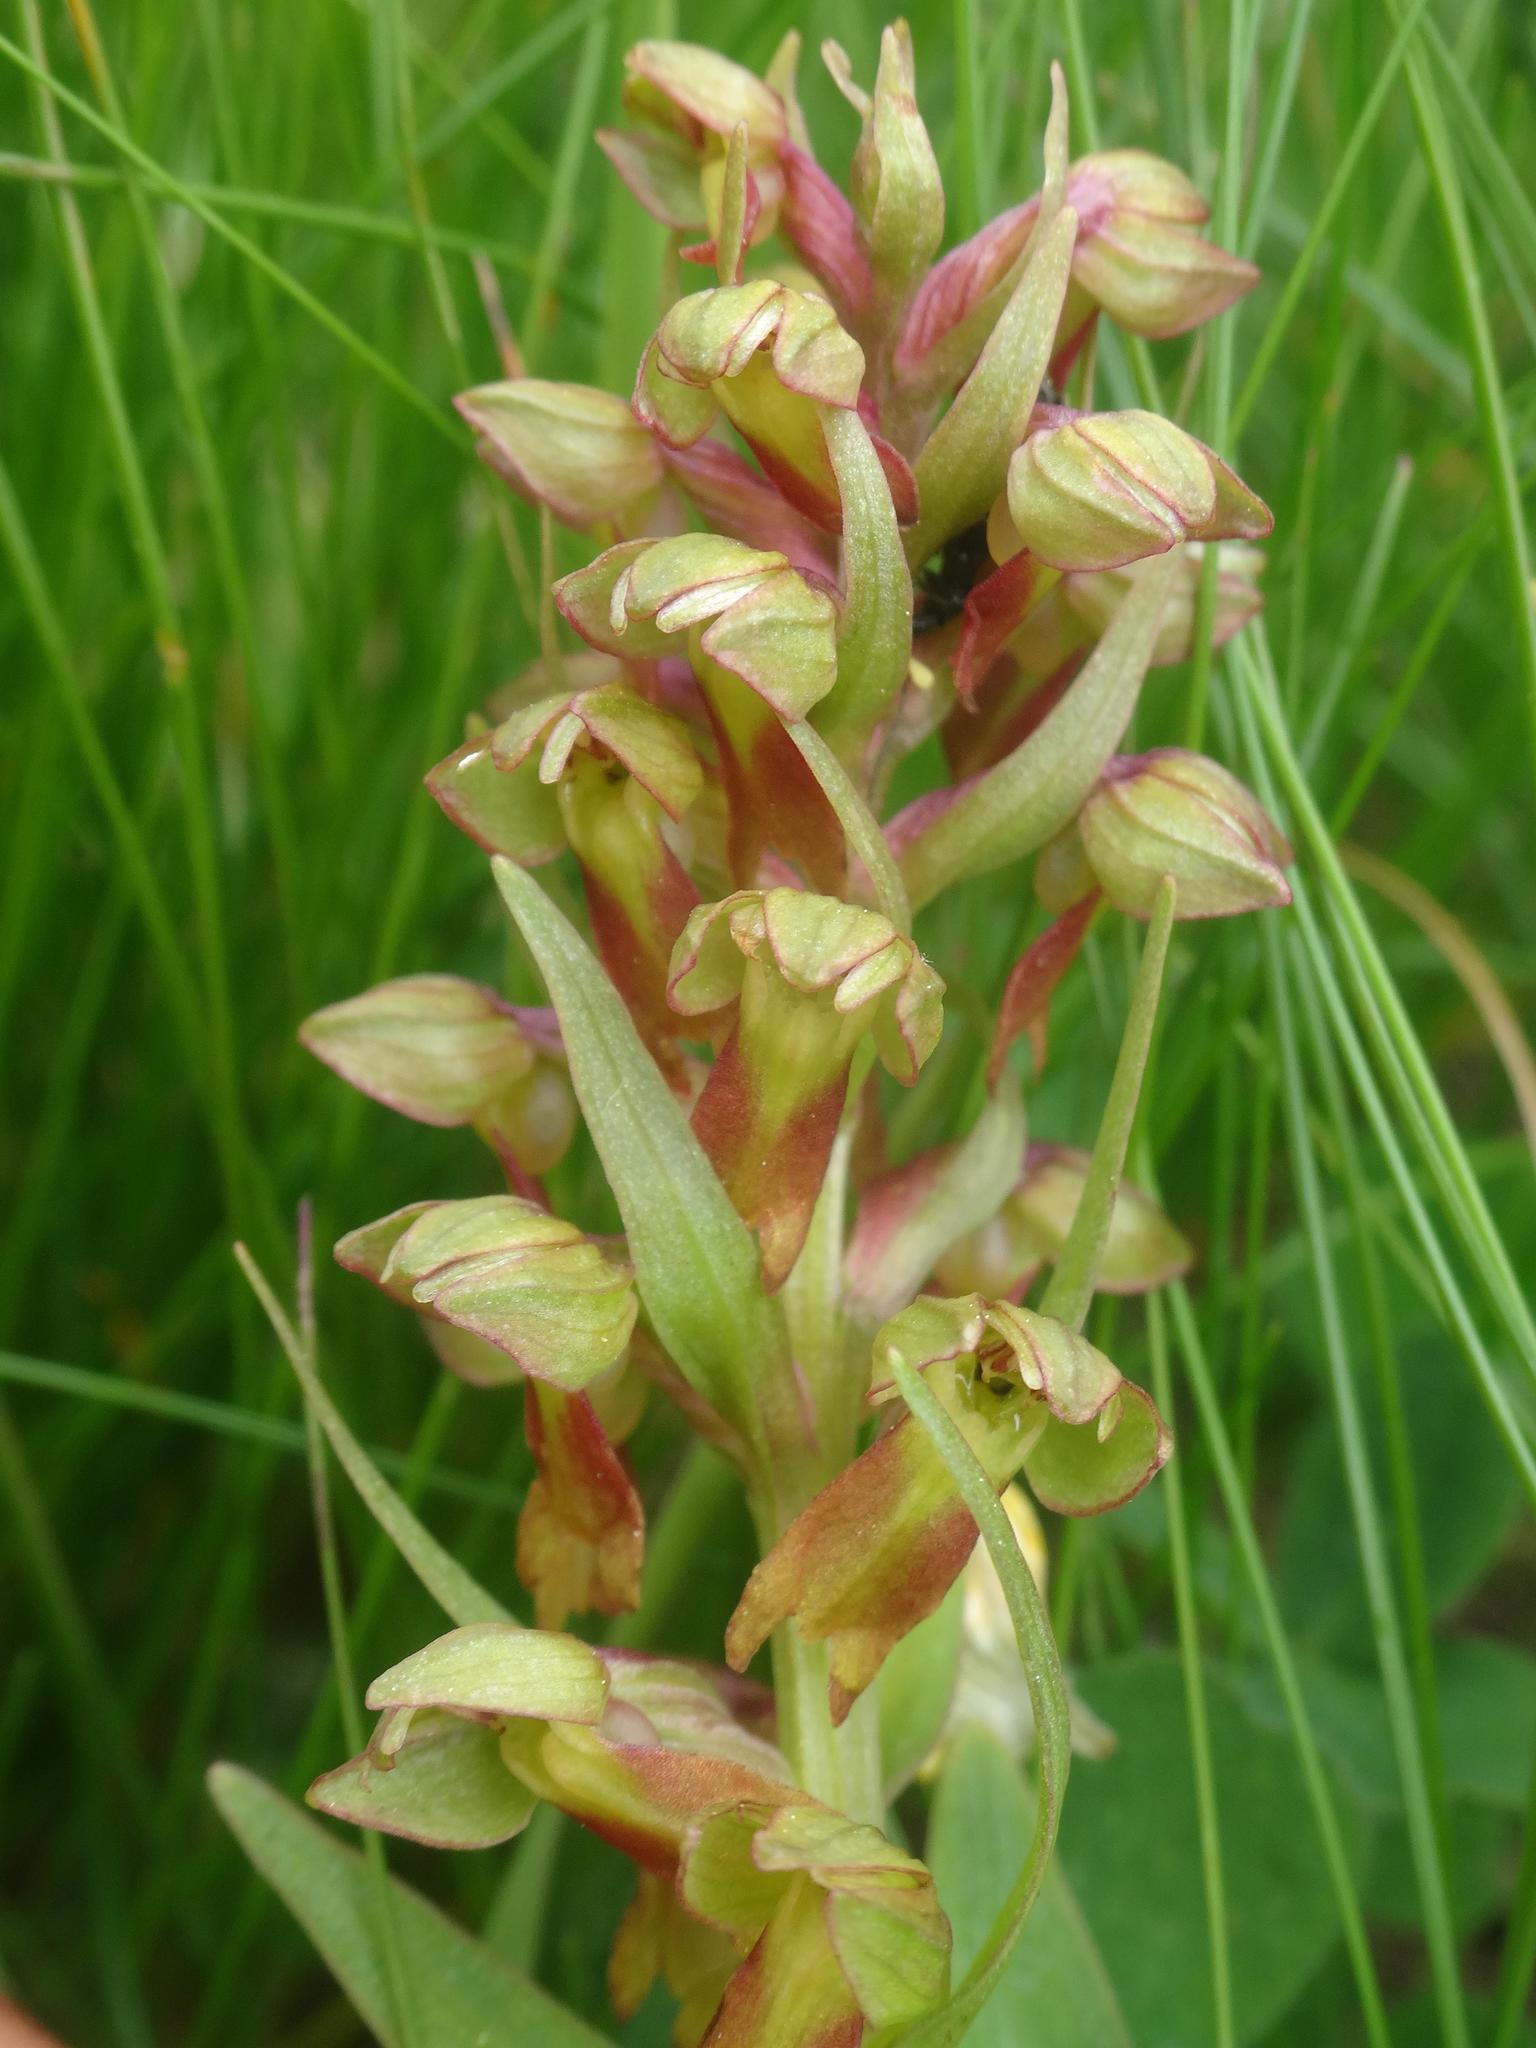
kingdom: Plantae
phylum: Tracheophyta
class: Liliopsida
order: Asparagales
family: Orchidaceae
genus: Dactylorhiza
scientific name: Dactylorhiza viridis
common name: Longbract frog orchid
